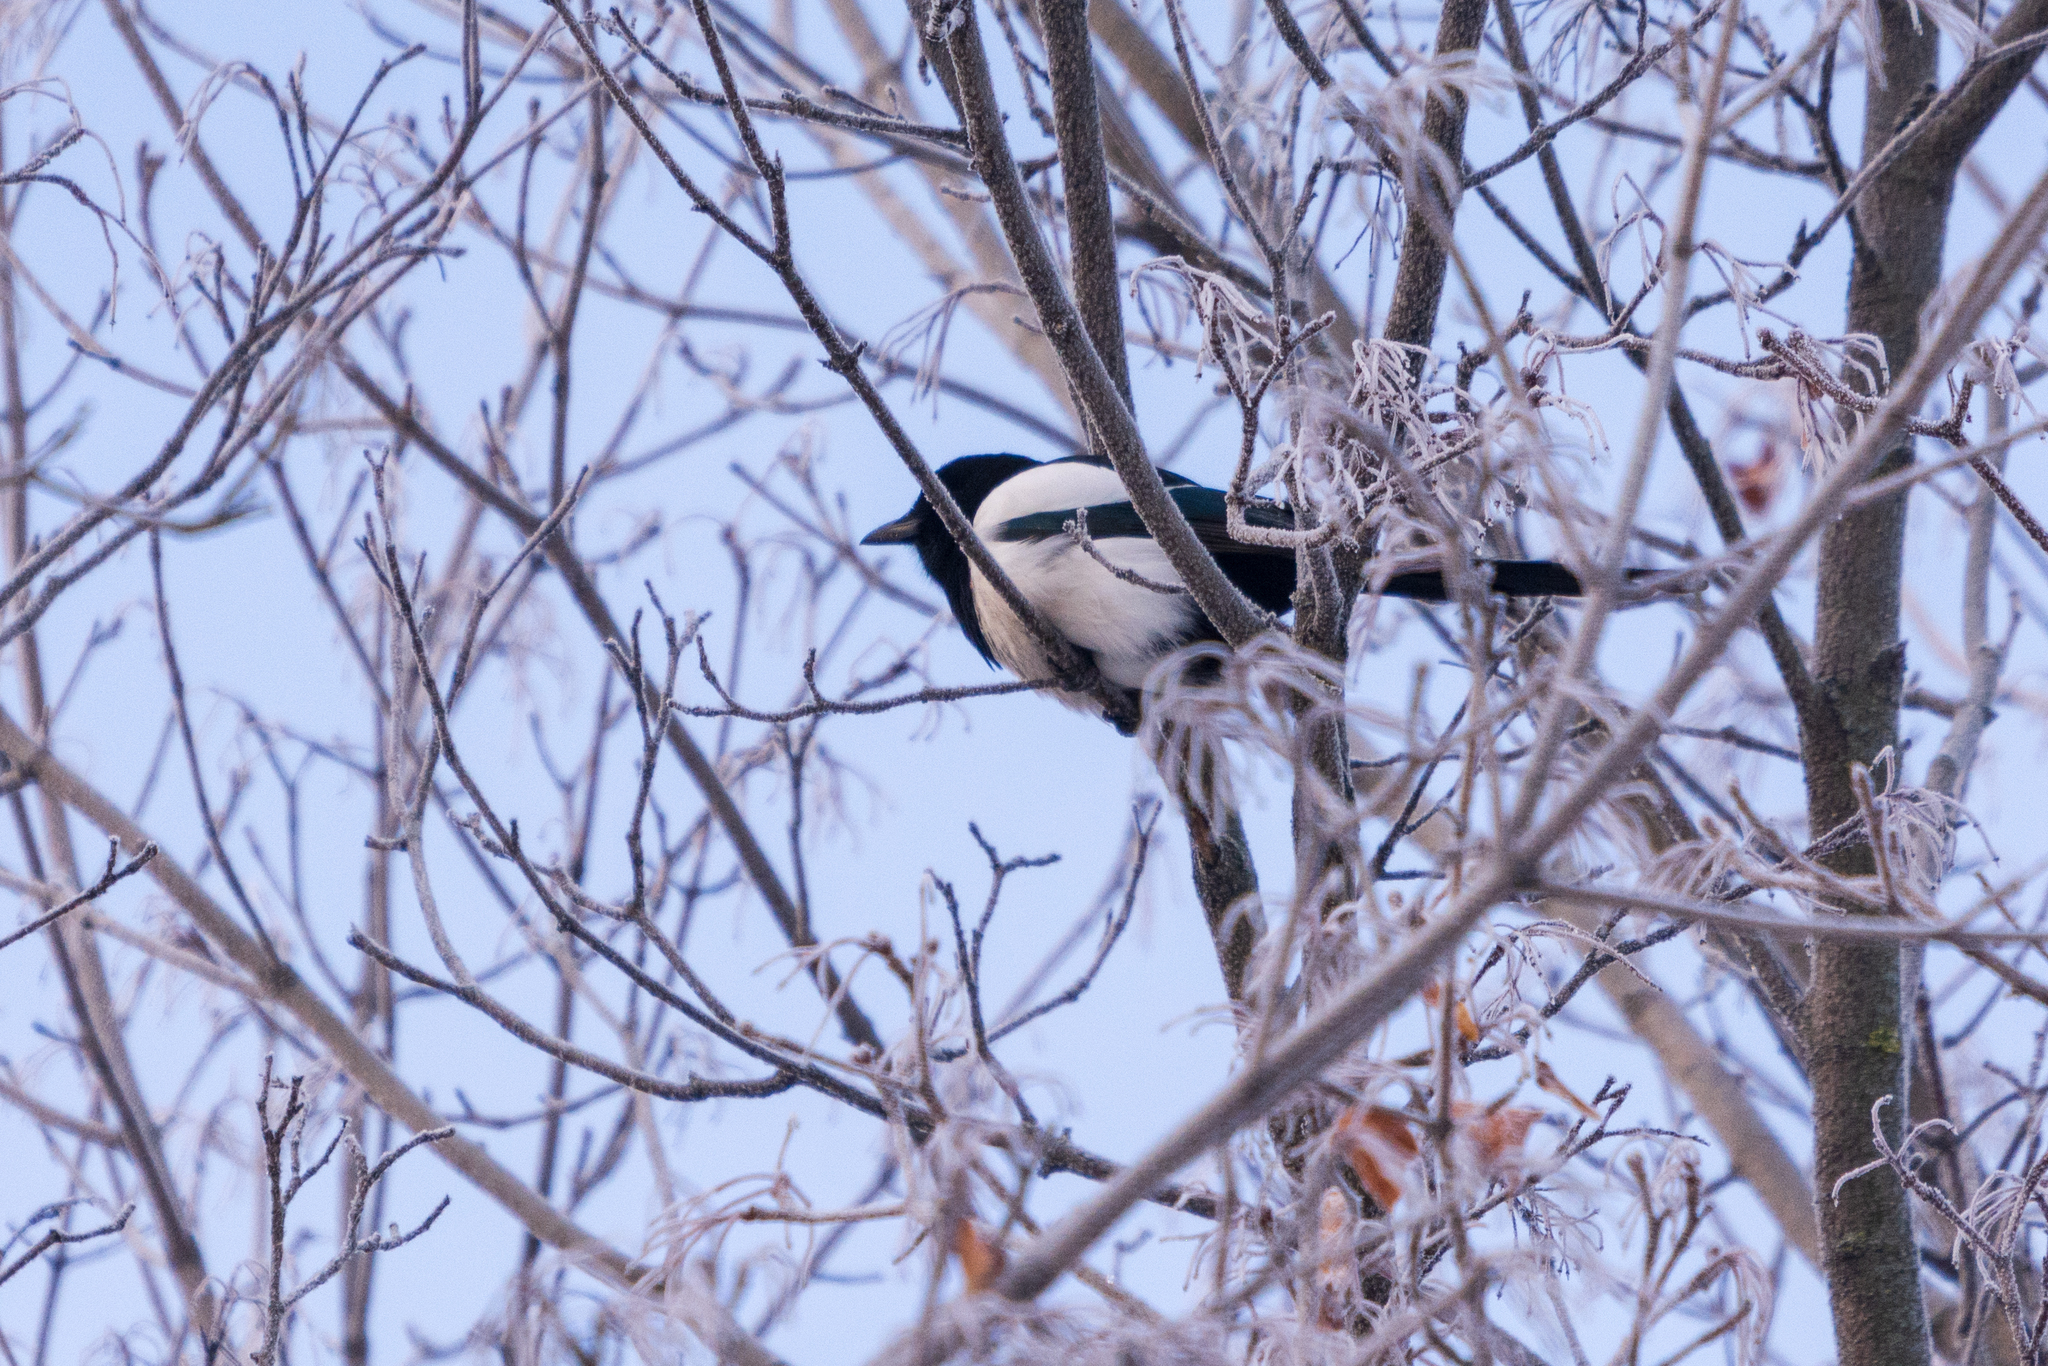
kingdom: Animalia
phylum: Chordata
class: Aves
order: Passeriformes
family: Corvidae
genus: Pica
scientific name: Pica pica
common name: Eurasian magpie
